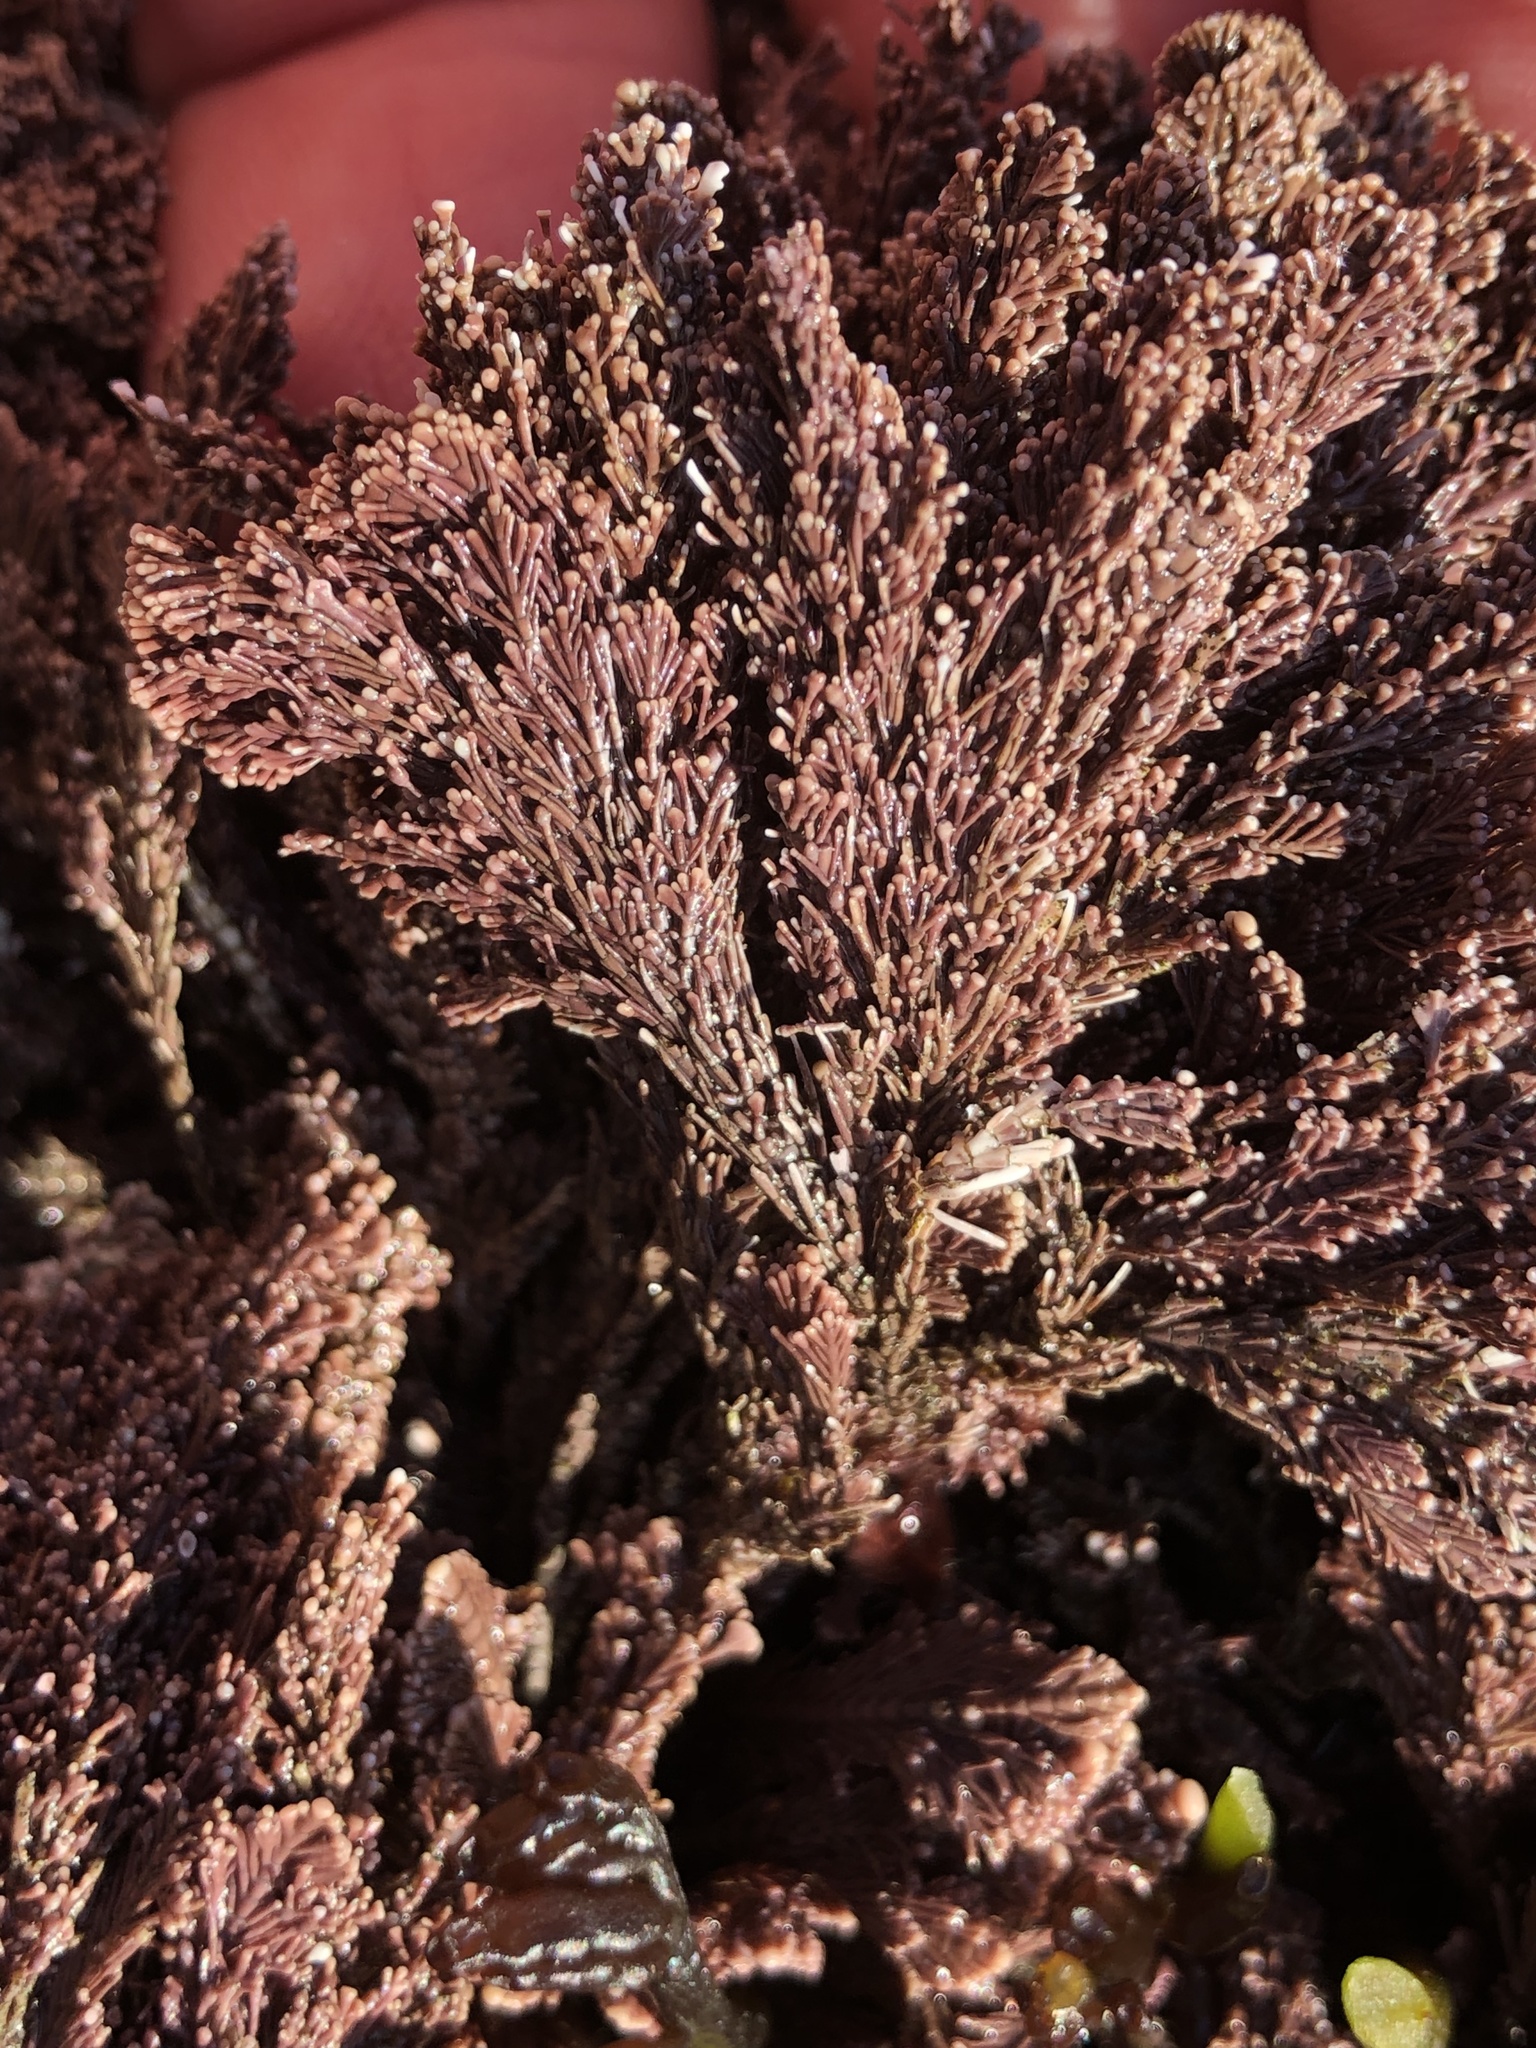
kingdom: Plantae
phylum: Rhodophyta
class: Florideophyceae
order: Corallinales
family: Corallinaceae
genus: Corallina
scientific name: Corallina vancouveriensis
